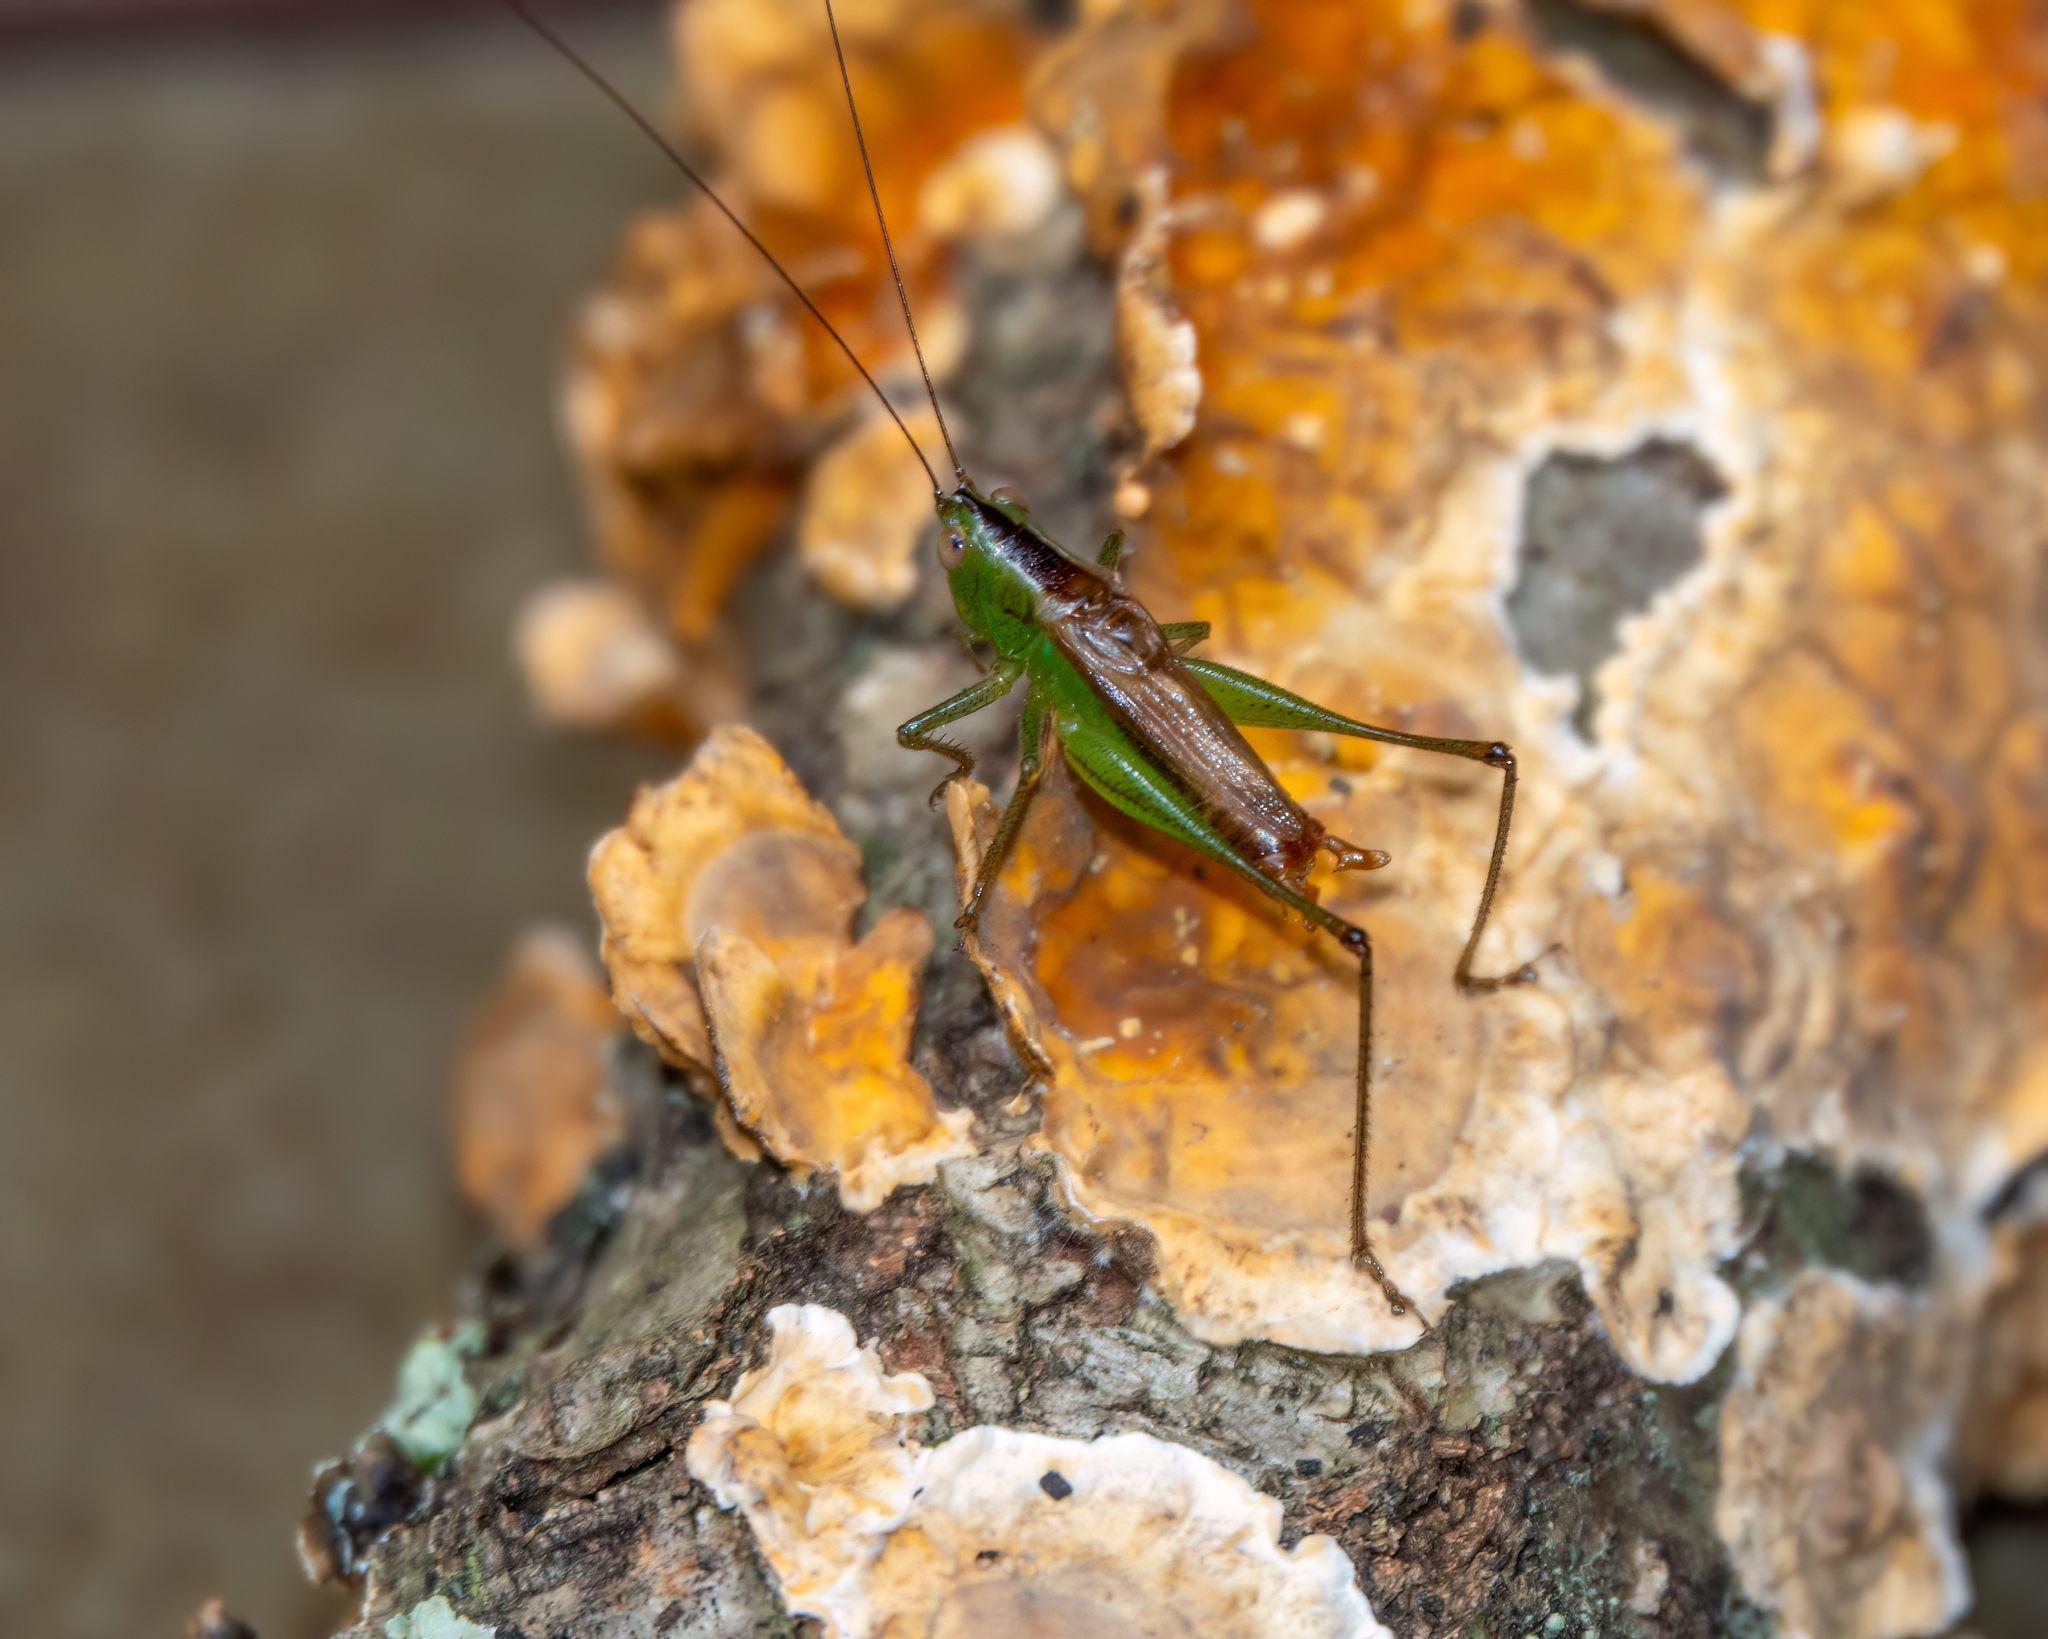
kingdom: Animalia
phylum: Arthropoda
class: Insecta
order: Orthoptera
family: Tettigoniidae
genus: Conocephalus
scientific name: Conocephalus brevipennis
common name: Short-winged meadow katydid
